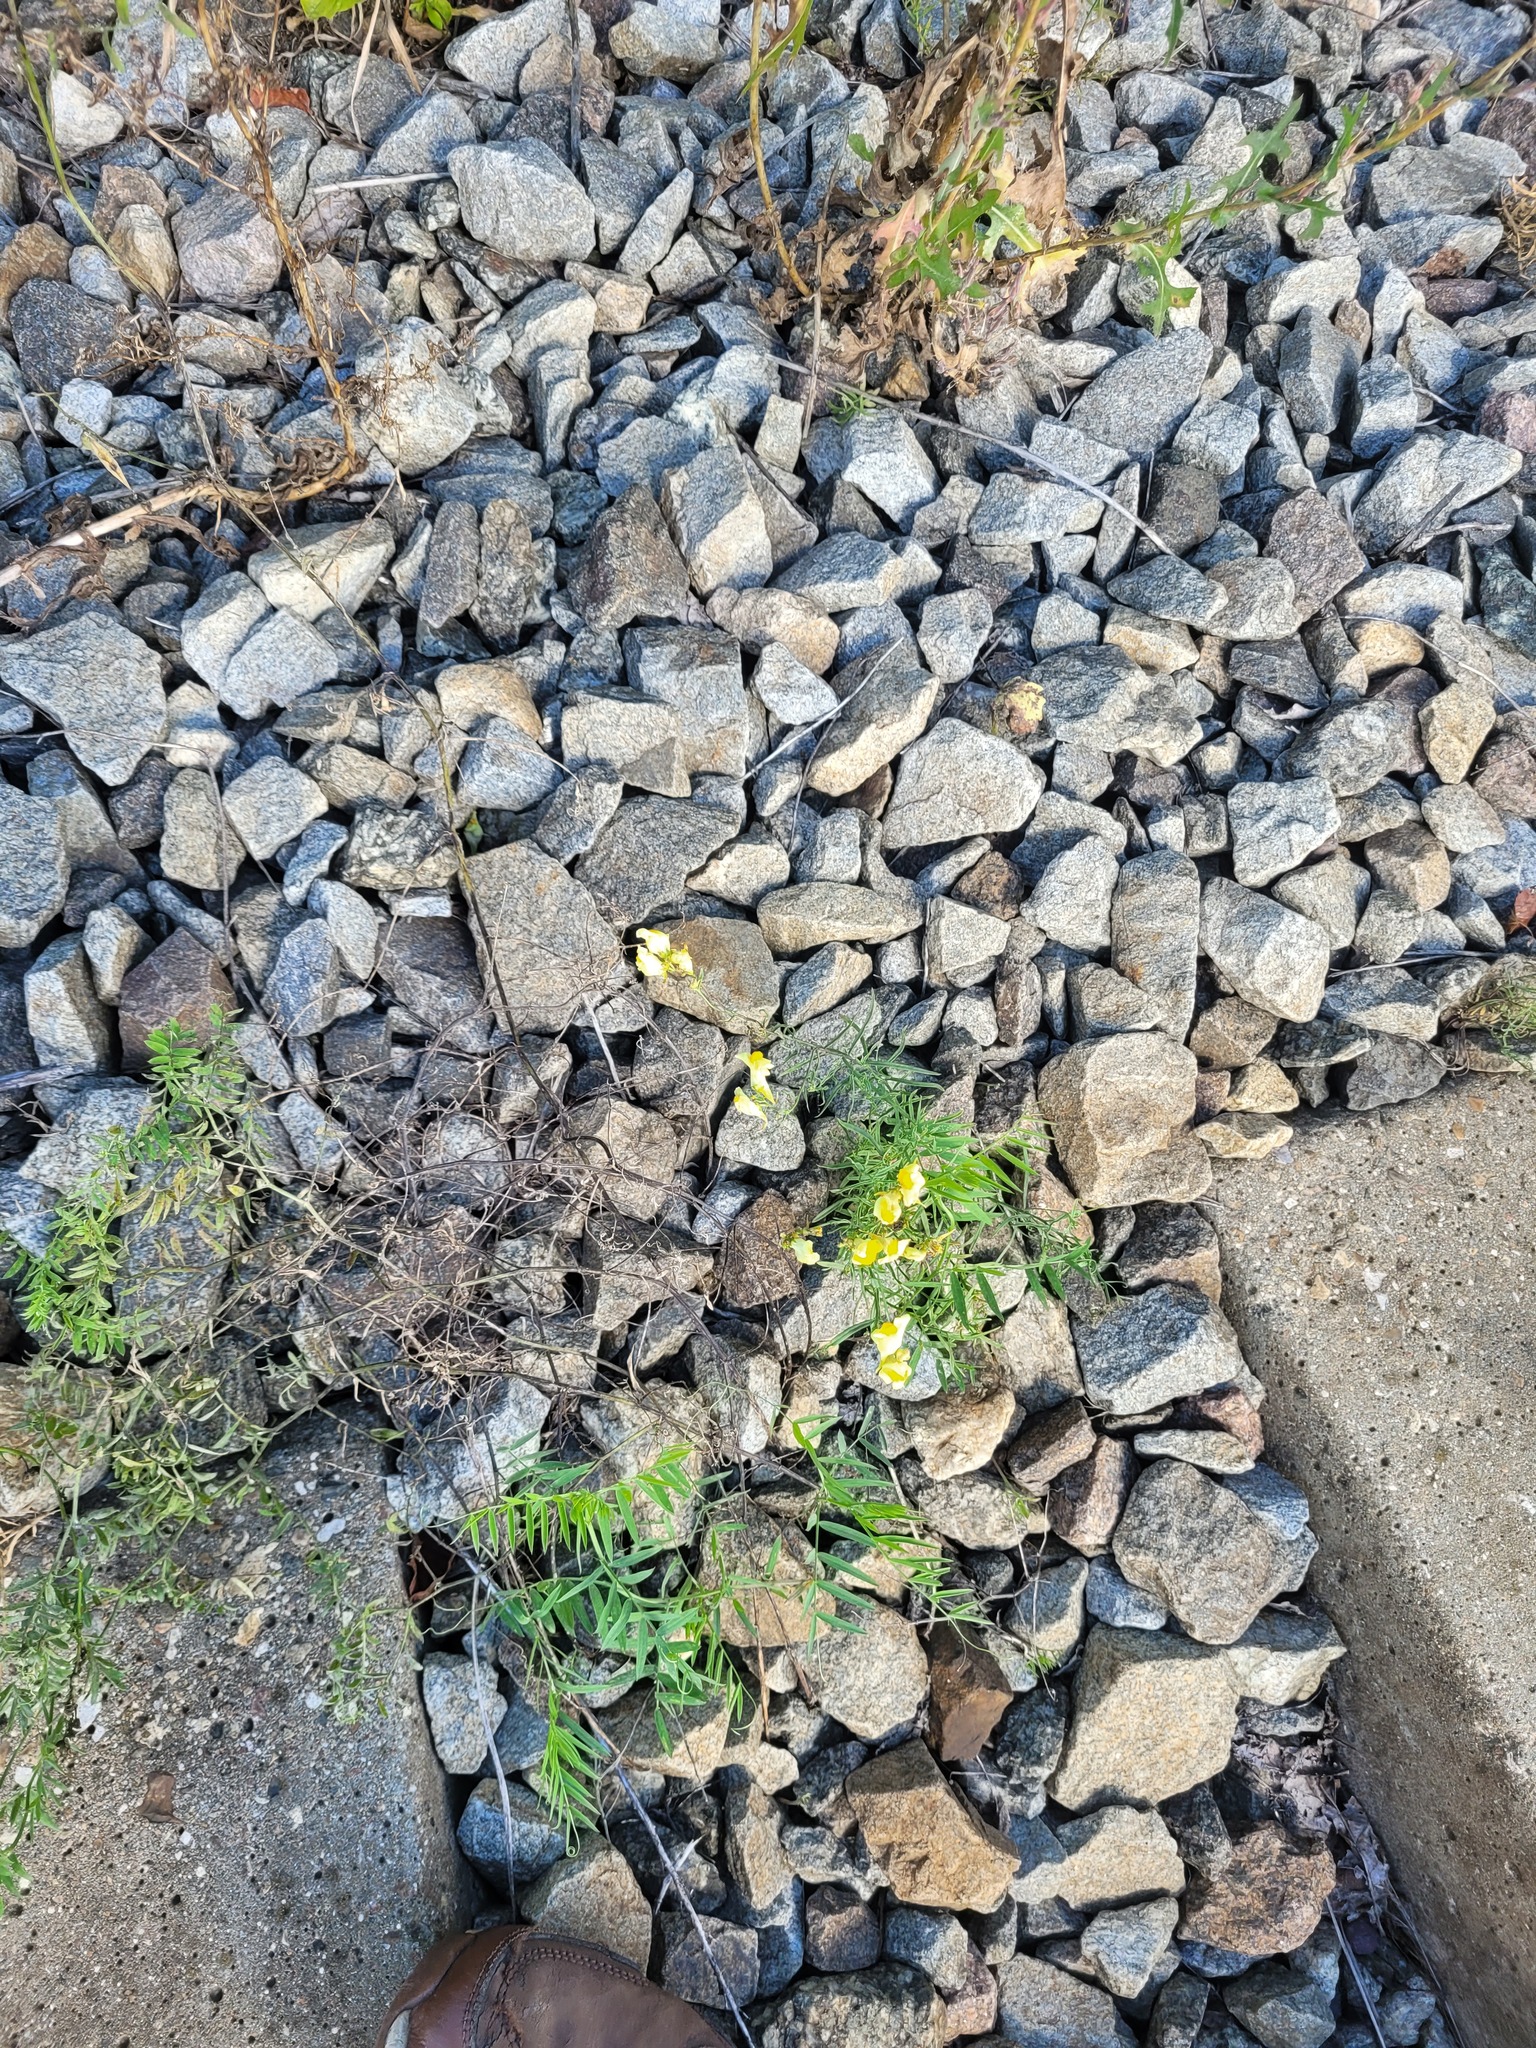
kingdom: Plantae
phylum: Tracheophyta
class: Magnoliopsida
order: Lamiales
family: Plantaginaceae
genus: Linaria
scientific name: Linaria vulgaris
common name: Butter and eggs
